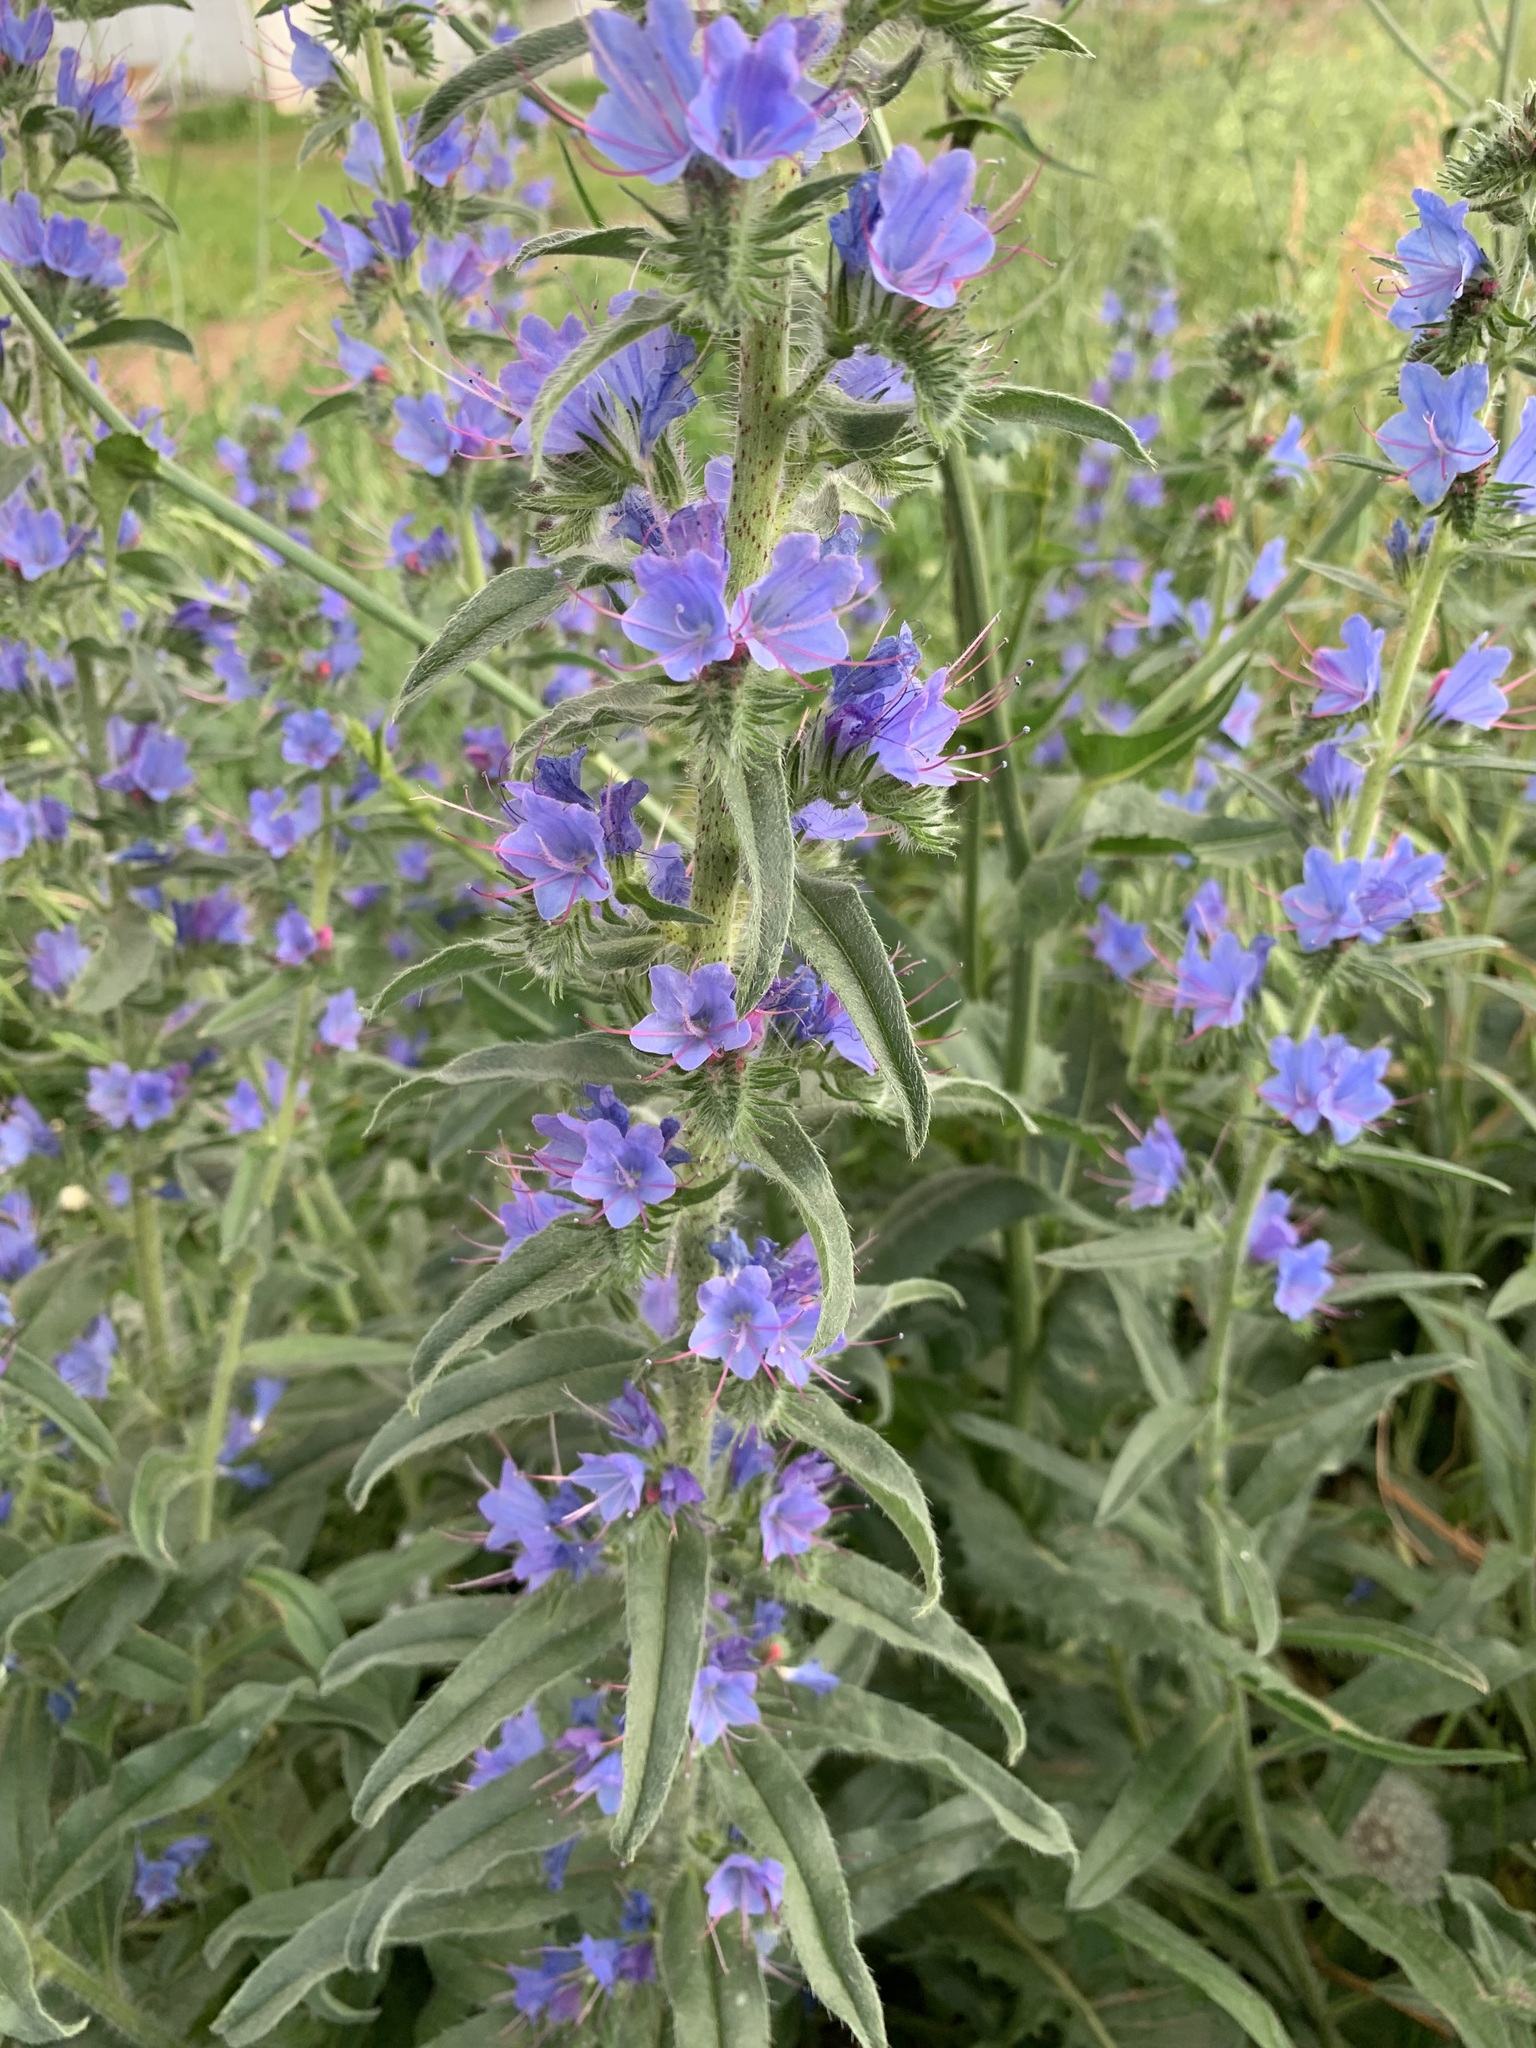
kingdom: Plantae
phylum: Tracheophyta
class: Magnoliopsida
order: Boraginales
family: Boraginaceae
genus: Echium
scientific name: Echium vulgare
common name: Common viper's bugloss
